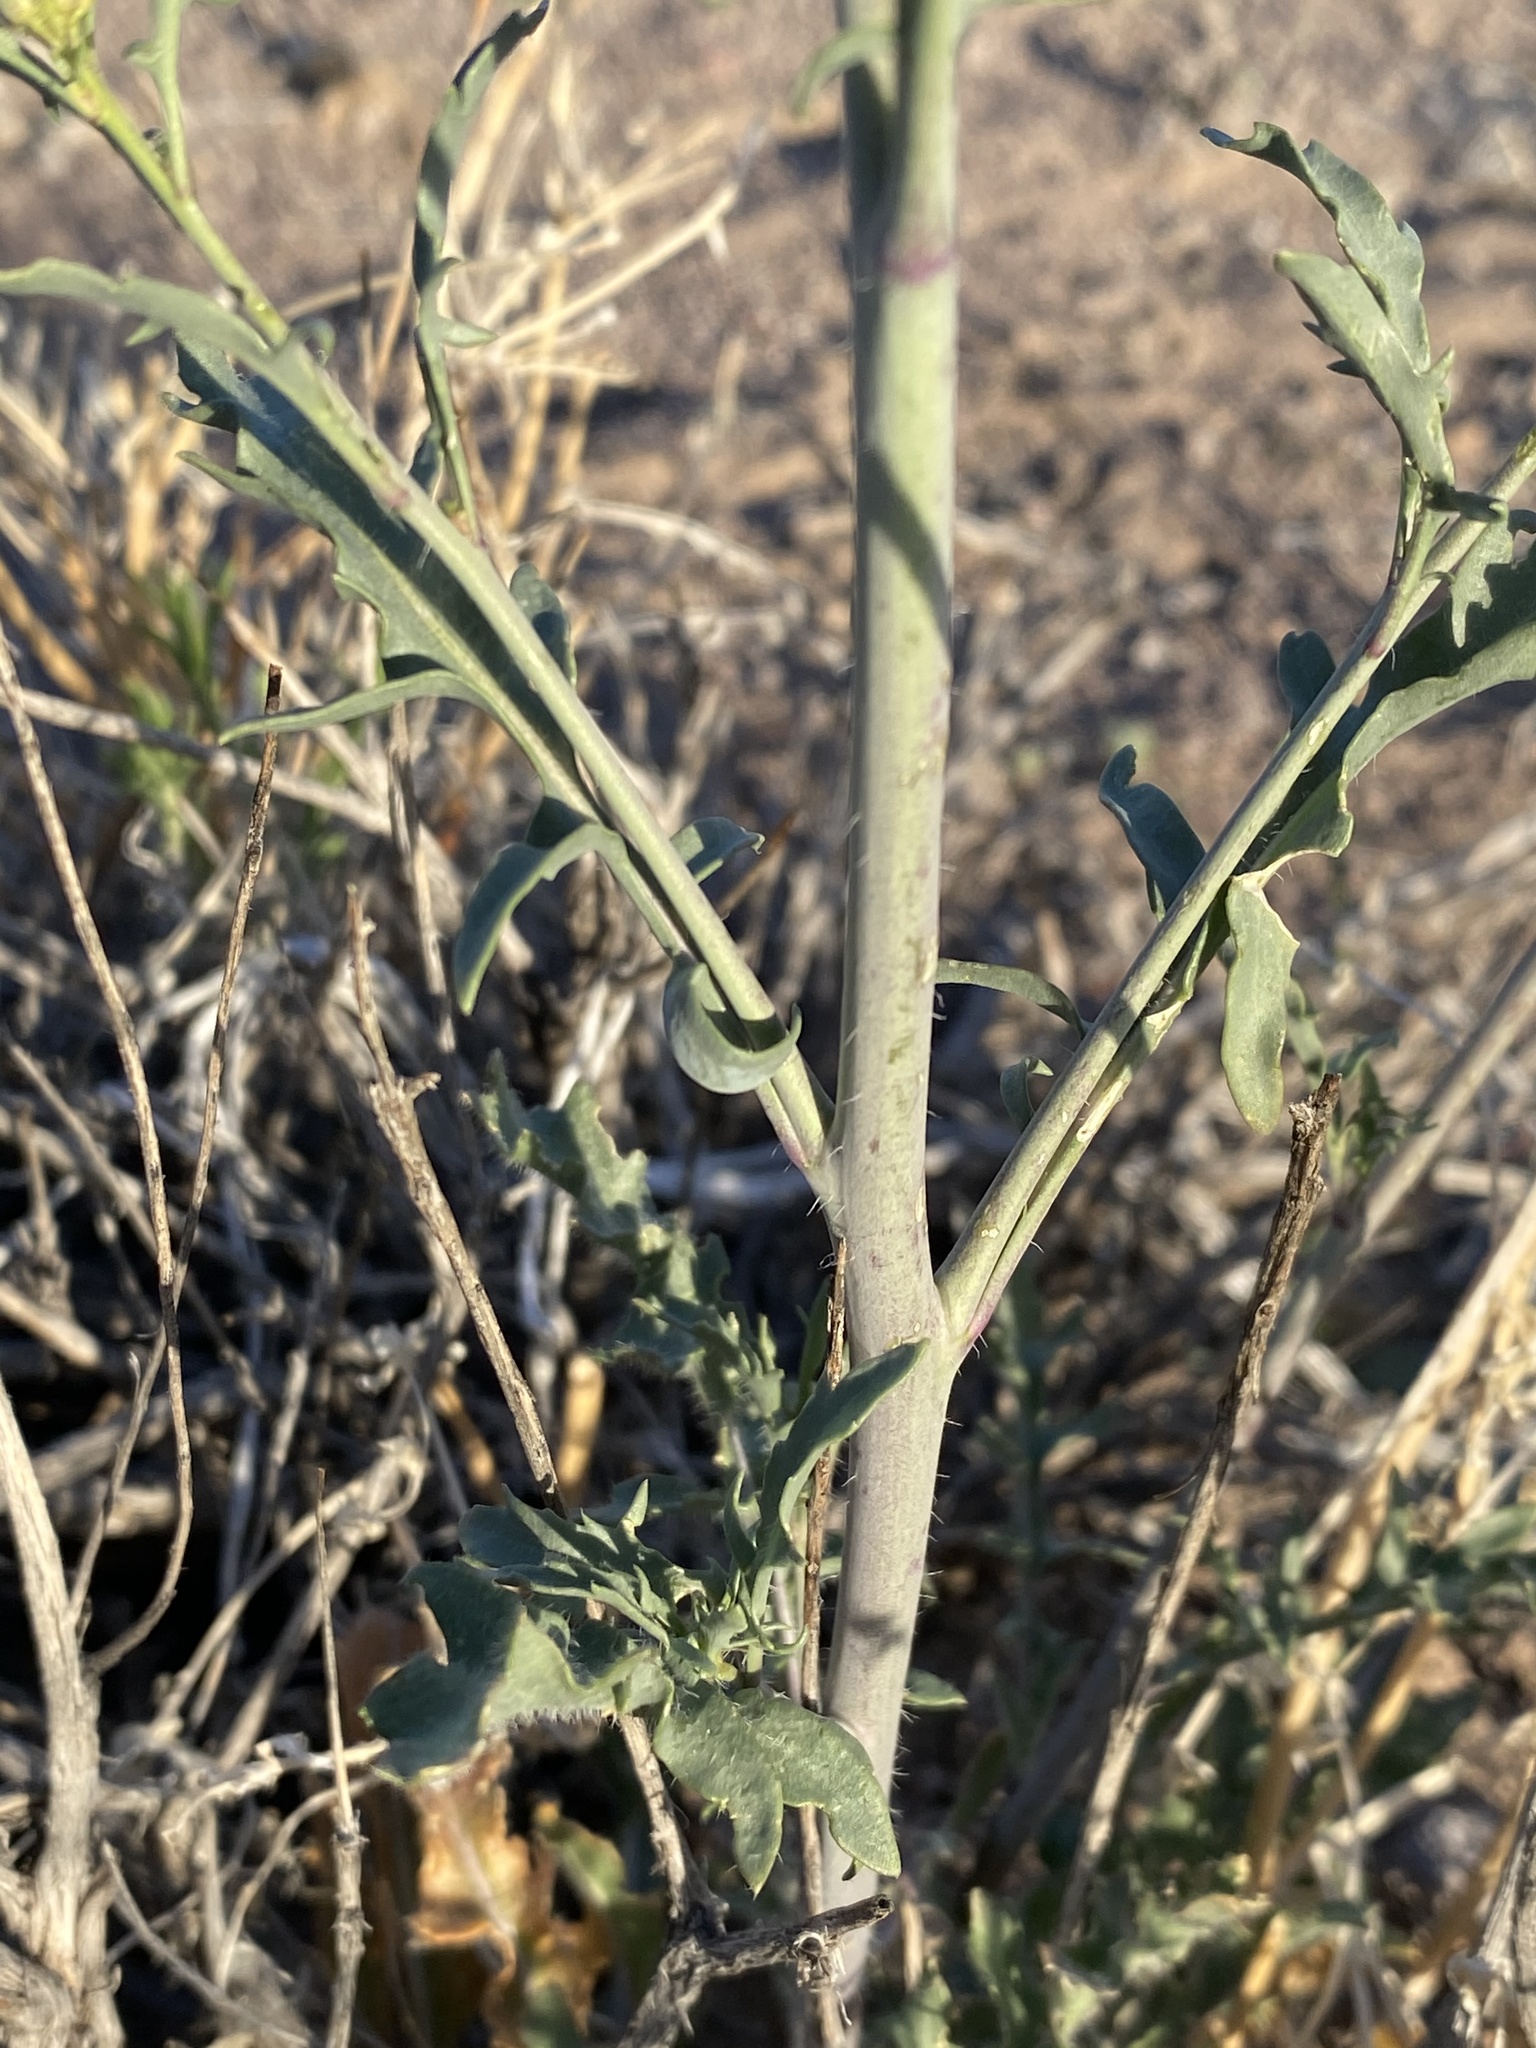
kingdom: Plantae
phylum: Tracheophyta
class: Magnoliopsida
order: Brassicales
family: Brassicaceae
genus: Streptanthus
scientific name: Streptanthus pilosus
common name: Chocolate drops
